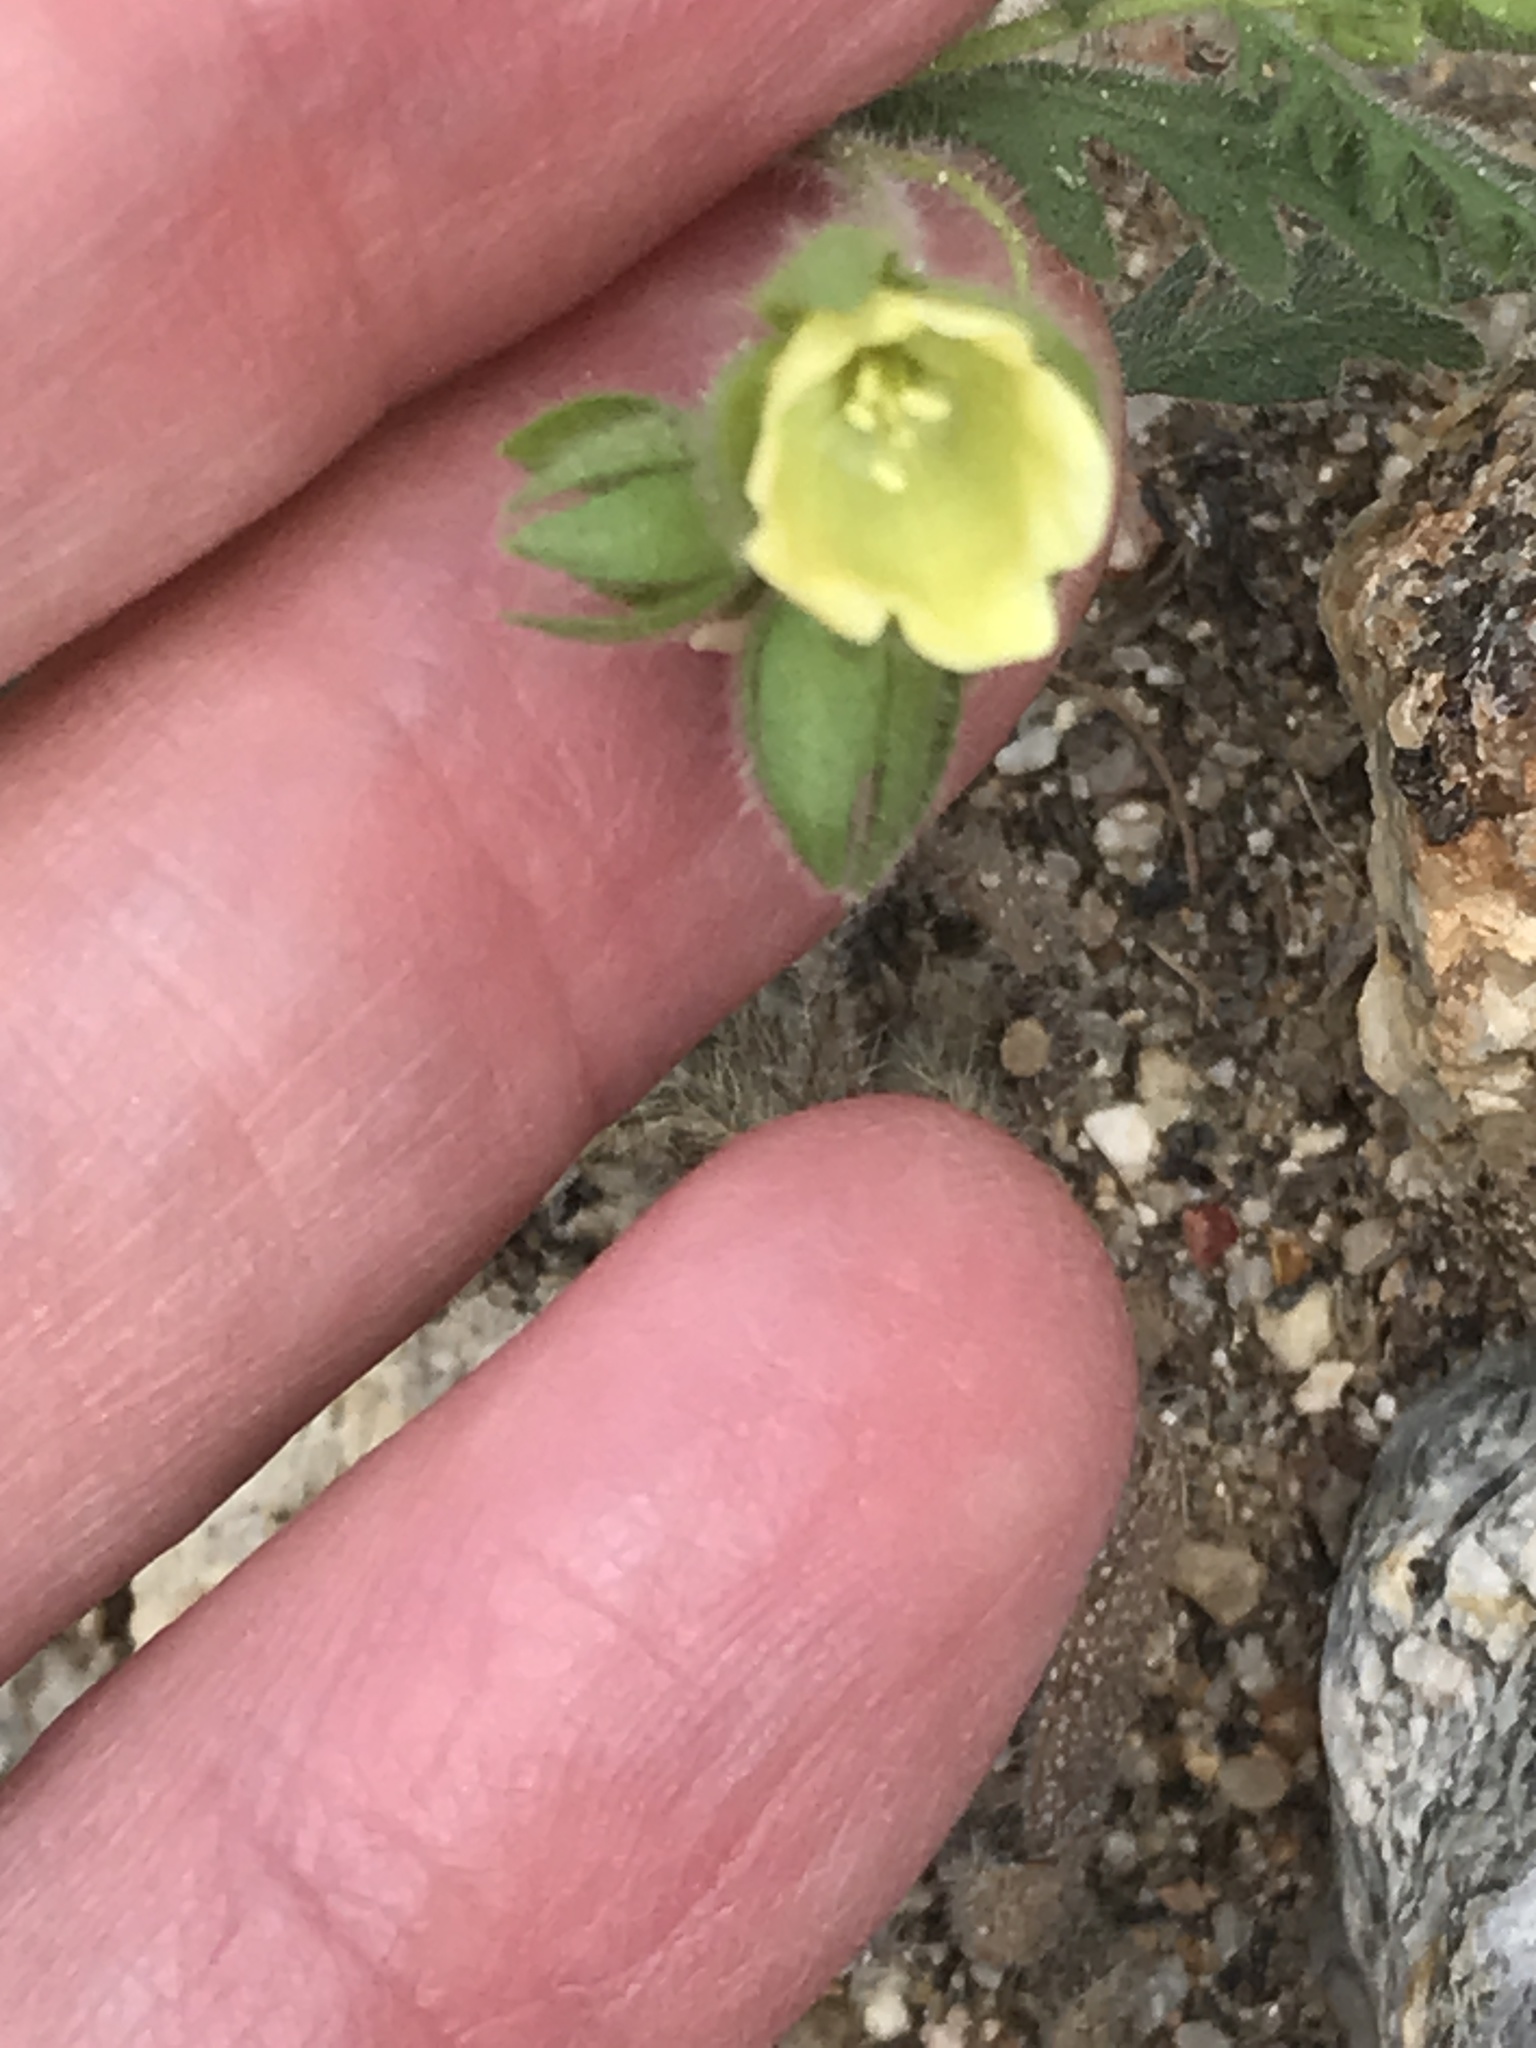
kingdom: Plantae
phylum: Tracheophyta
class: Magnoliopsida
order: Boraginales
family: Hydrophyllaceae
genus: Emmenanthe
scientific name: Emmenanthe penduliflora
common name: Whispering-bells
